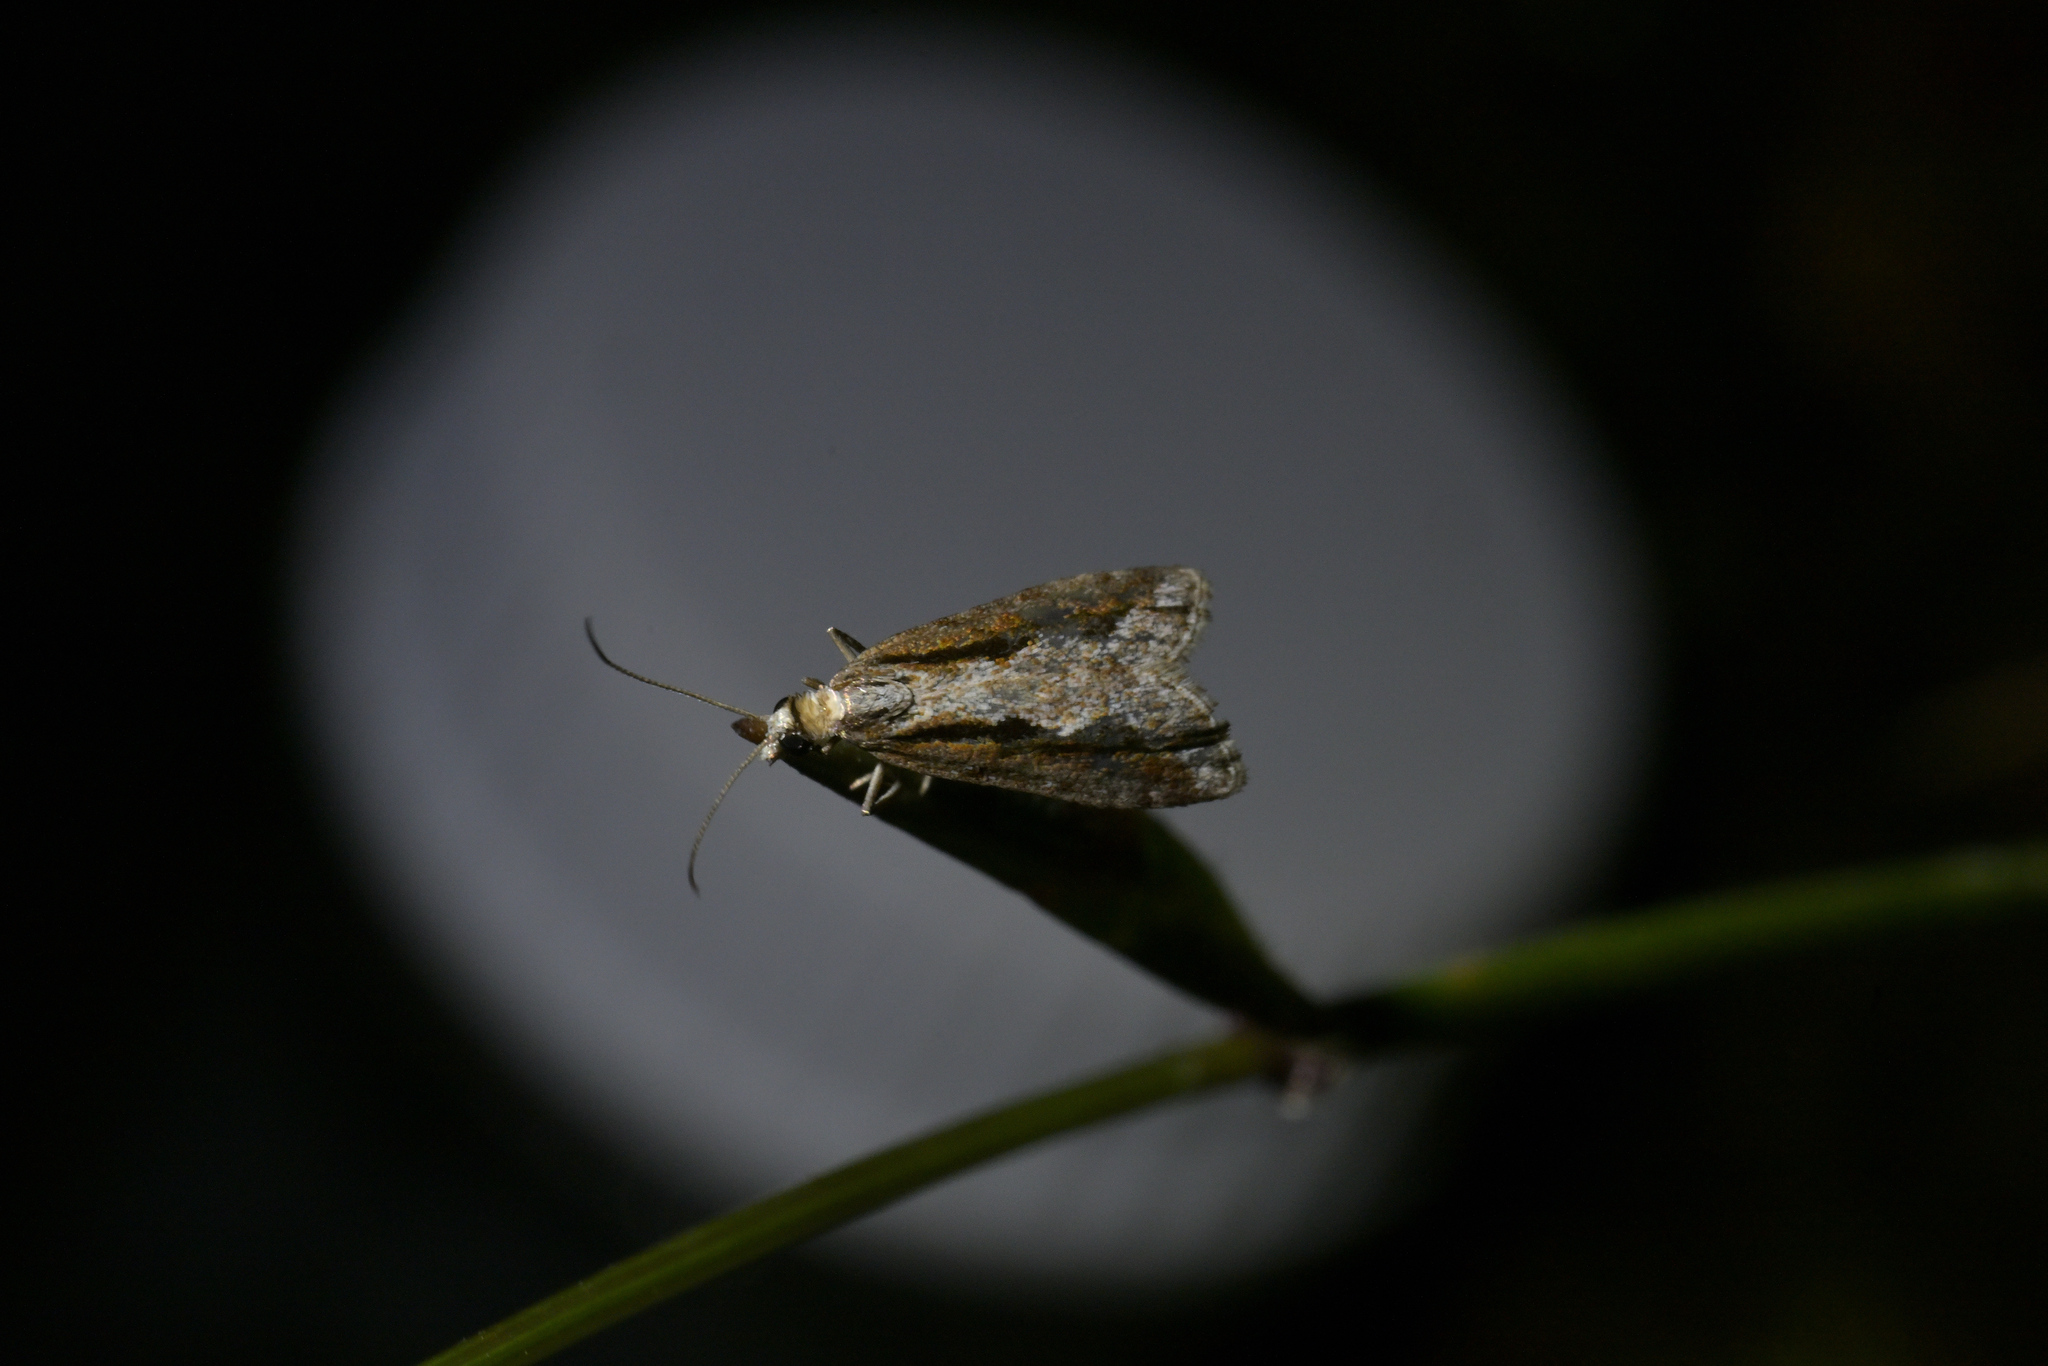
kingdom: Animalia
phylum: Arthropoda
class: Insecta
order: Lepidoptera
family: Crambidae
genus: Eudonia
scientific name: Eudonia steropaea
